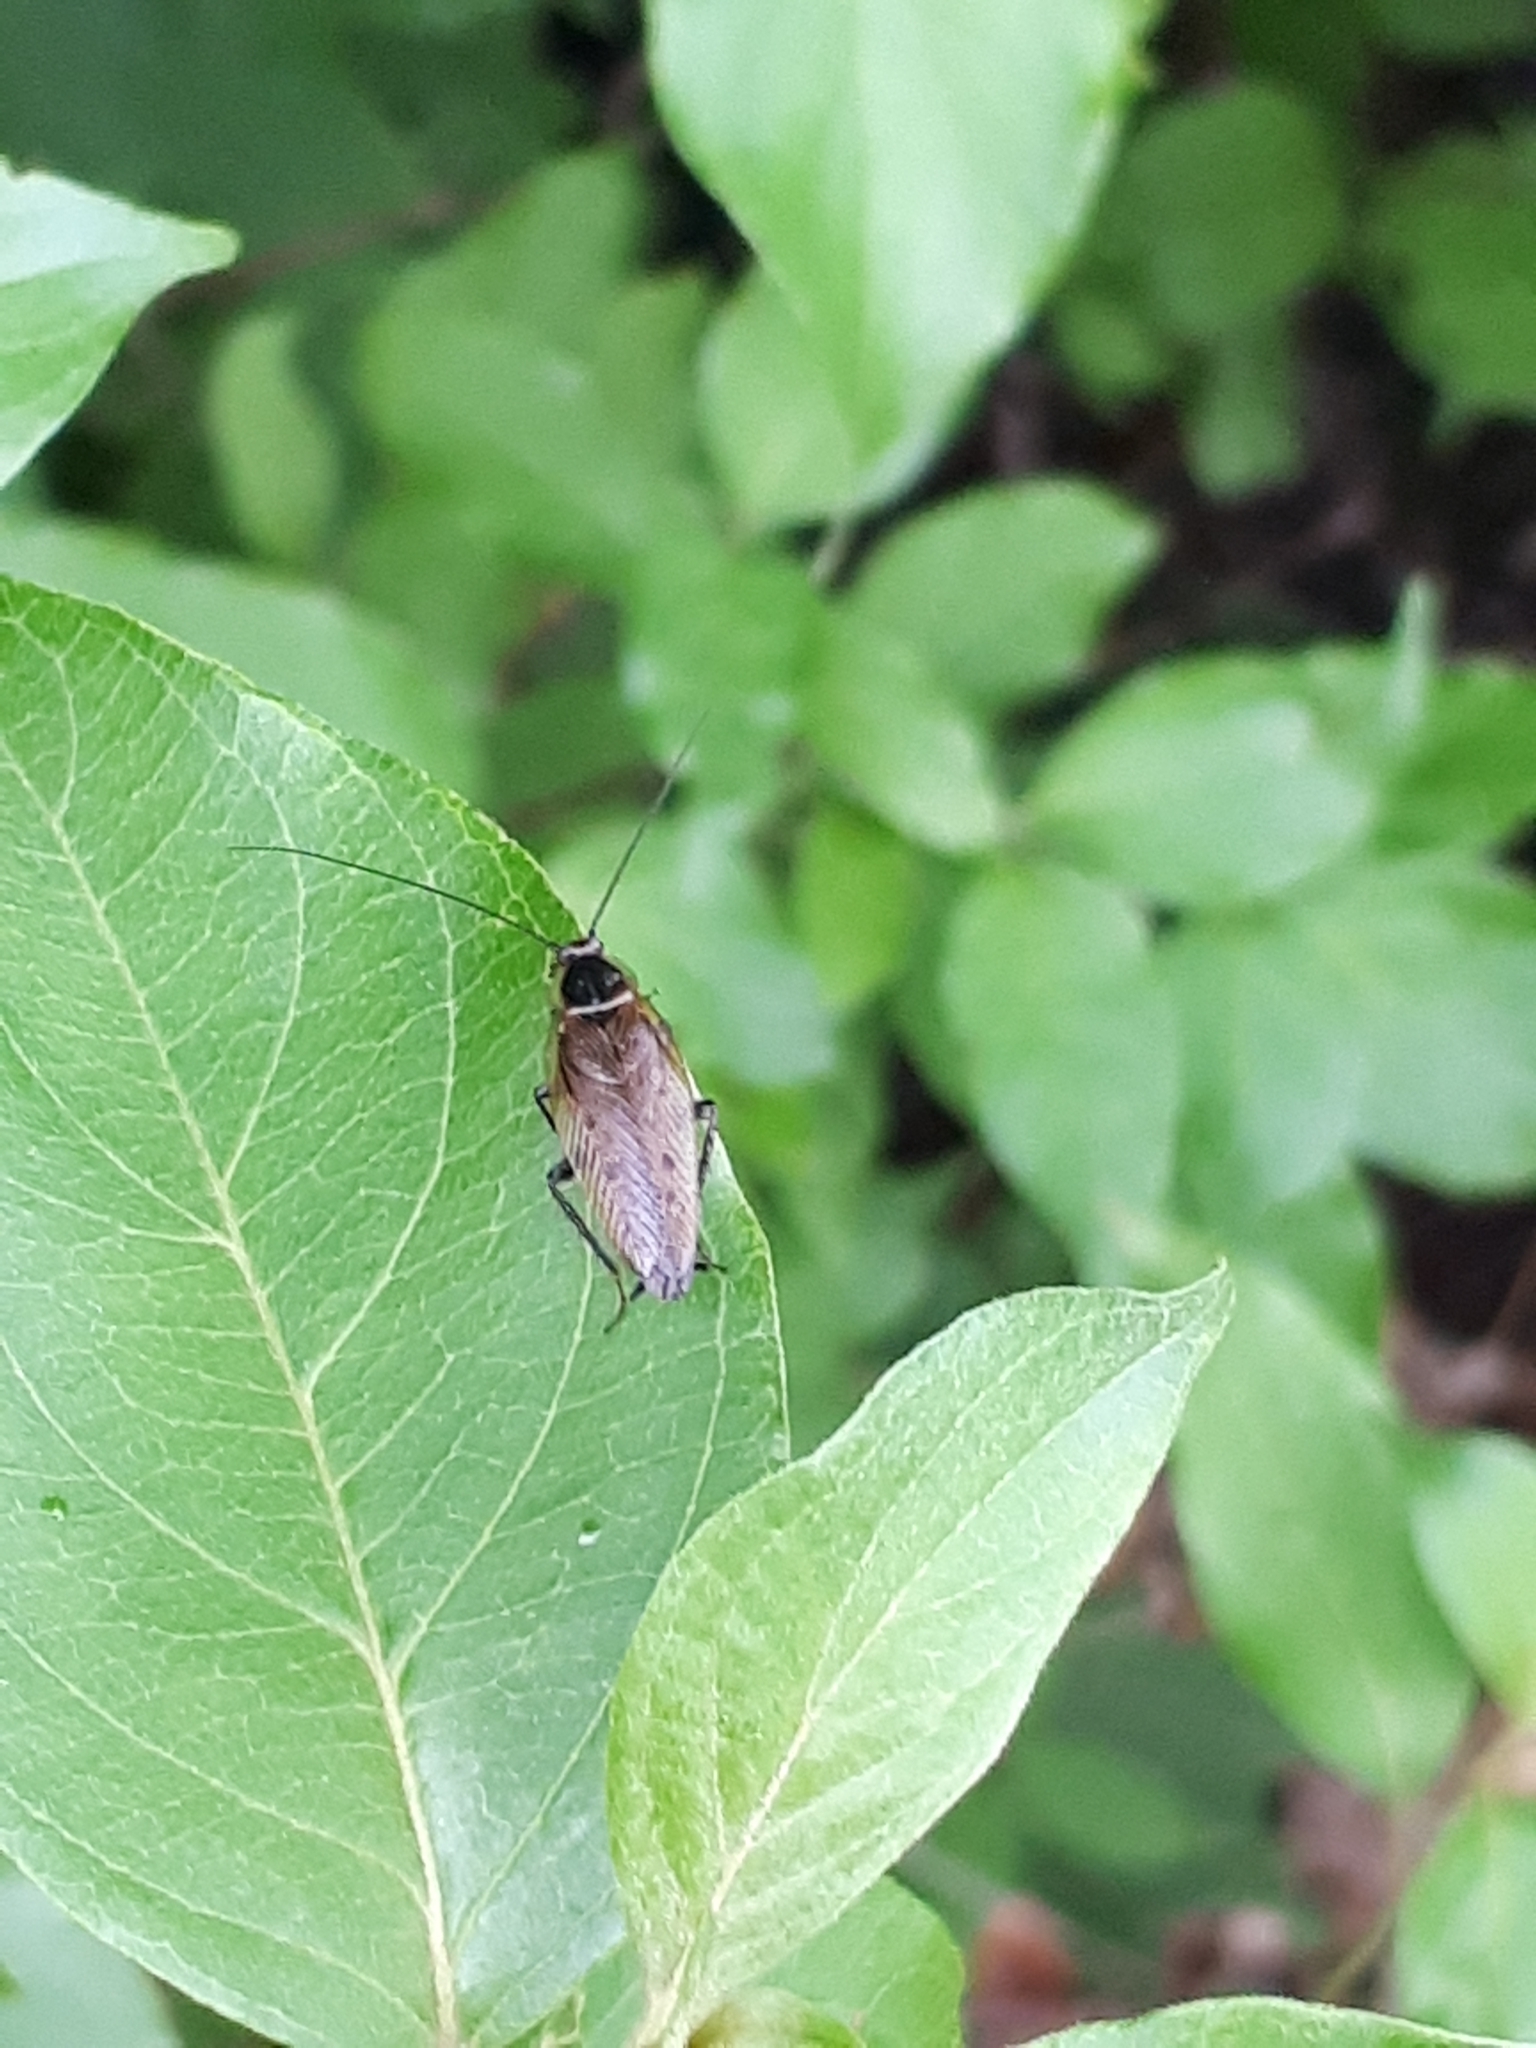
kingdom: Animalia
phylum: Arthropoda
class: Insecta
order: Blattodea
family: Ectobiidae
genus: Ectobius
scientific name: Ectobius lapponicus
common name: Dusky cockroach
